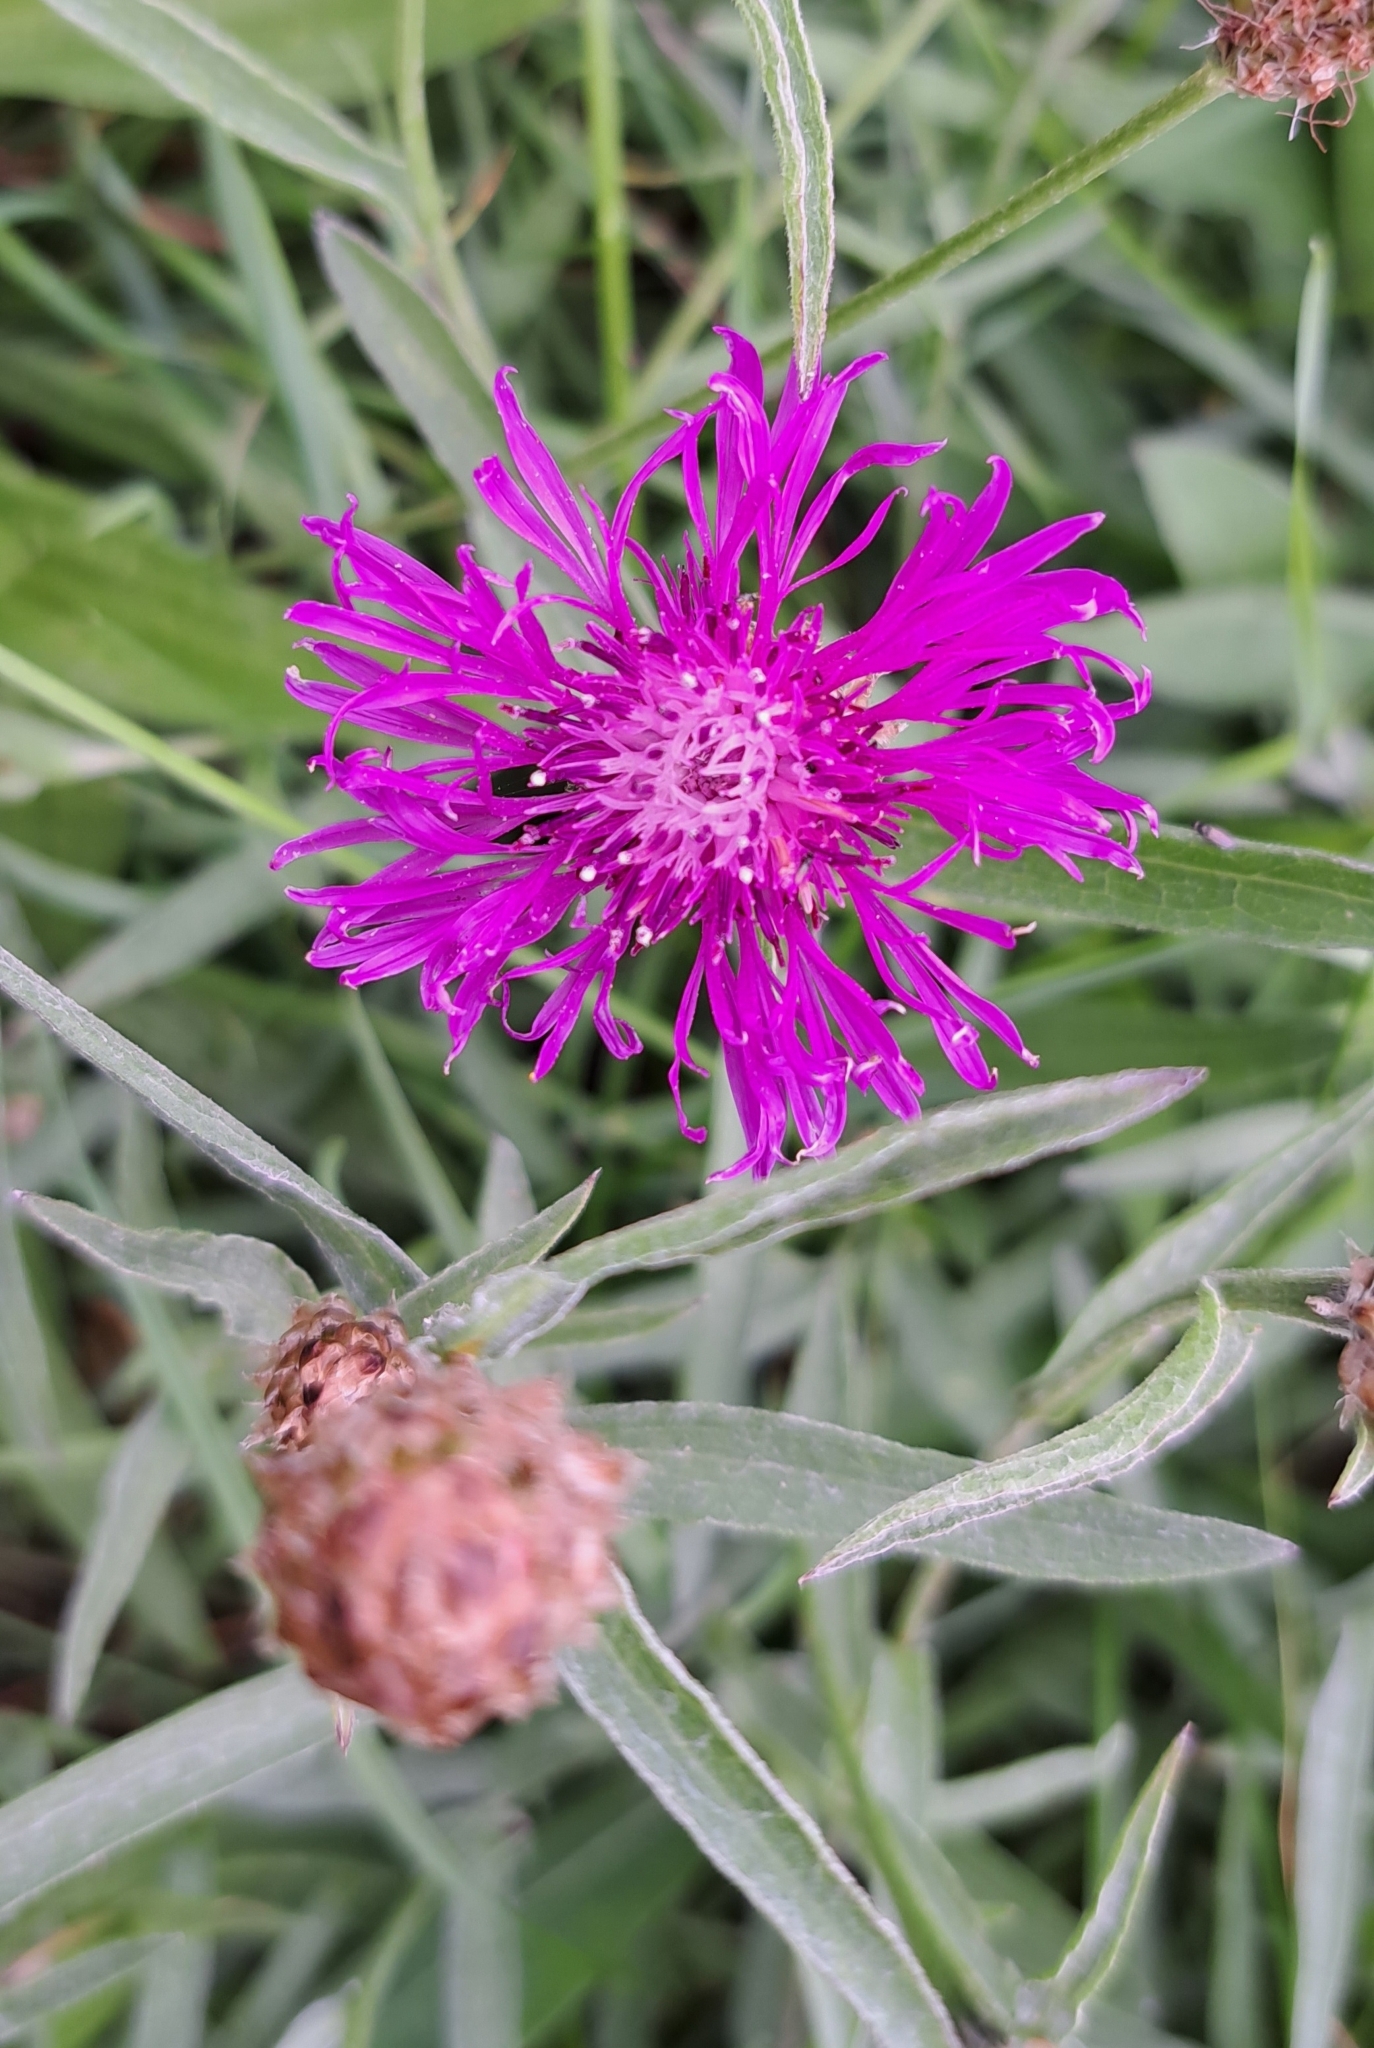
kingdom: Plantae
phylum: Tracheophyta
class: Magnoliopsida
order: Asterales
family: Asteraceae
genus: Centaurea
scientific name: Centaurea jacea
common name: Brown knapweed
